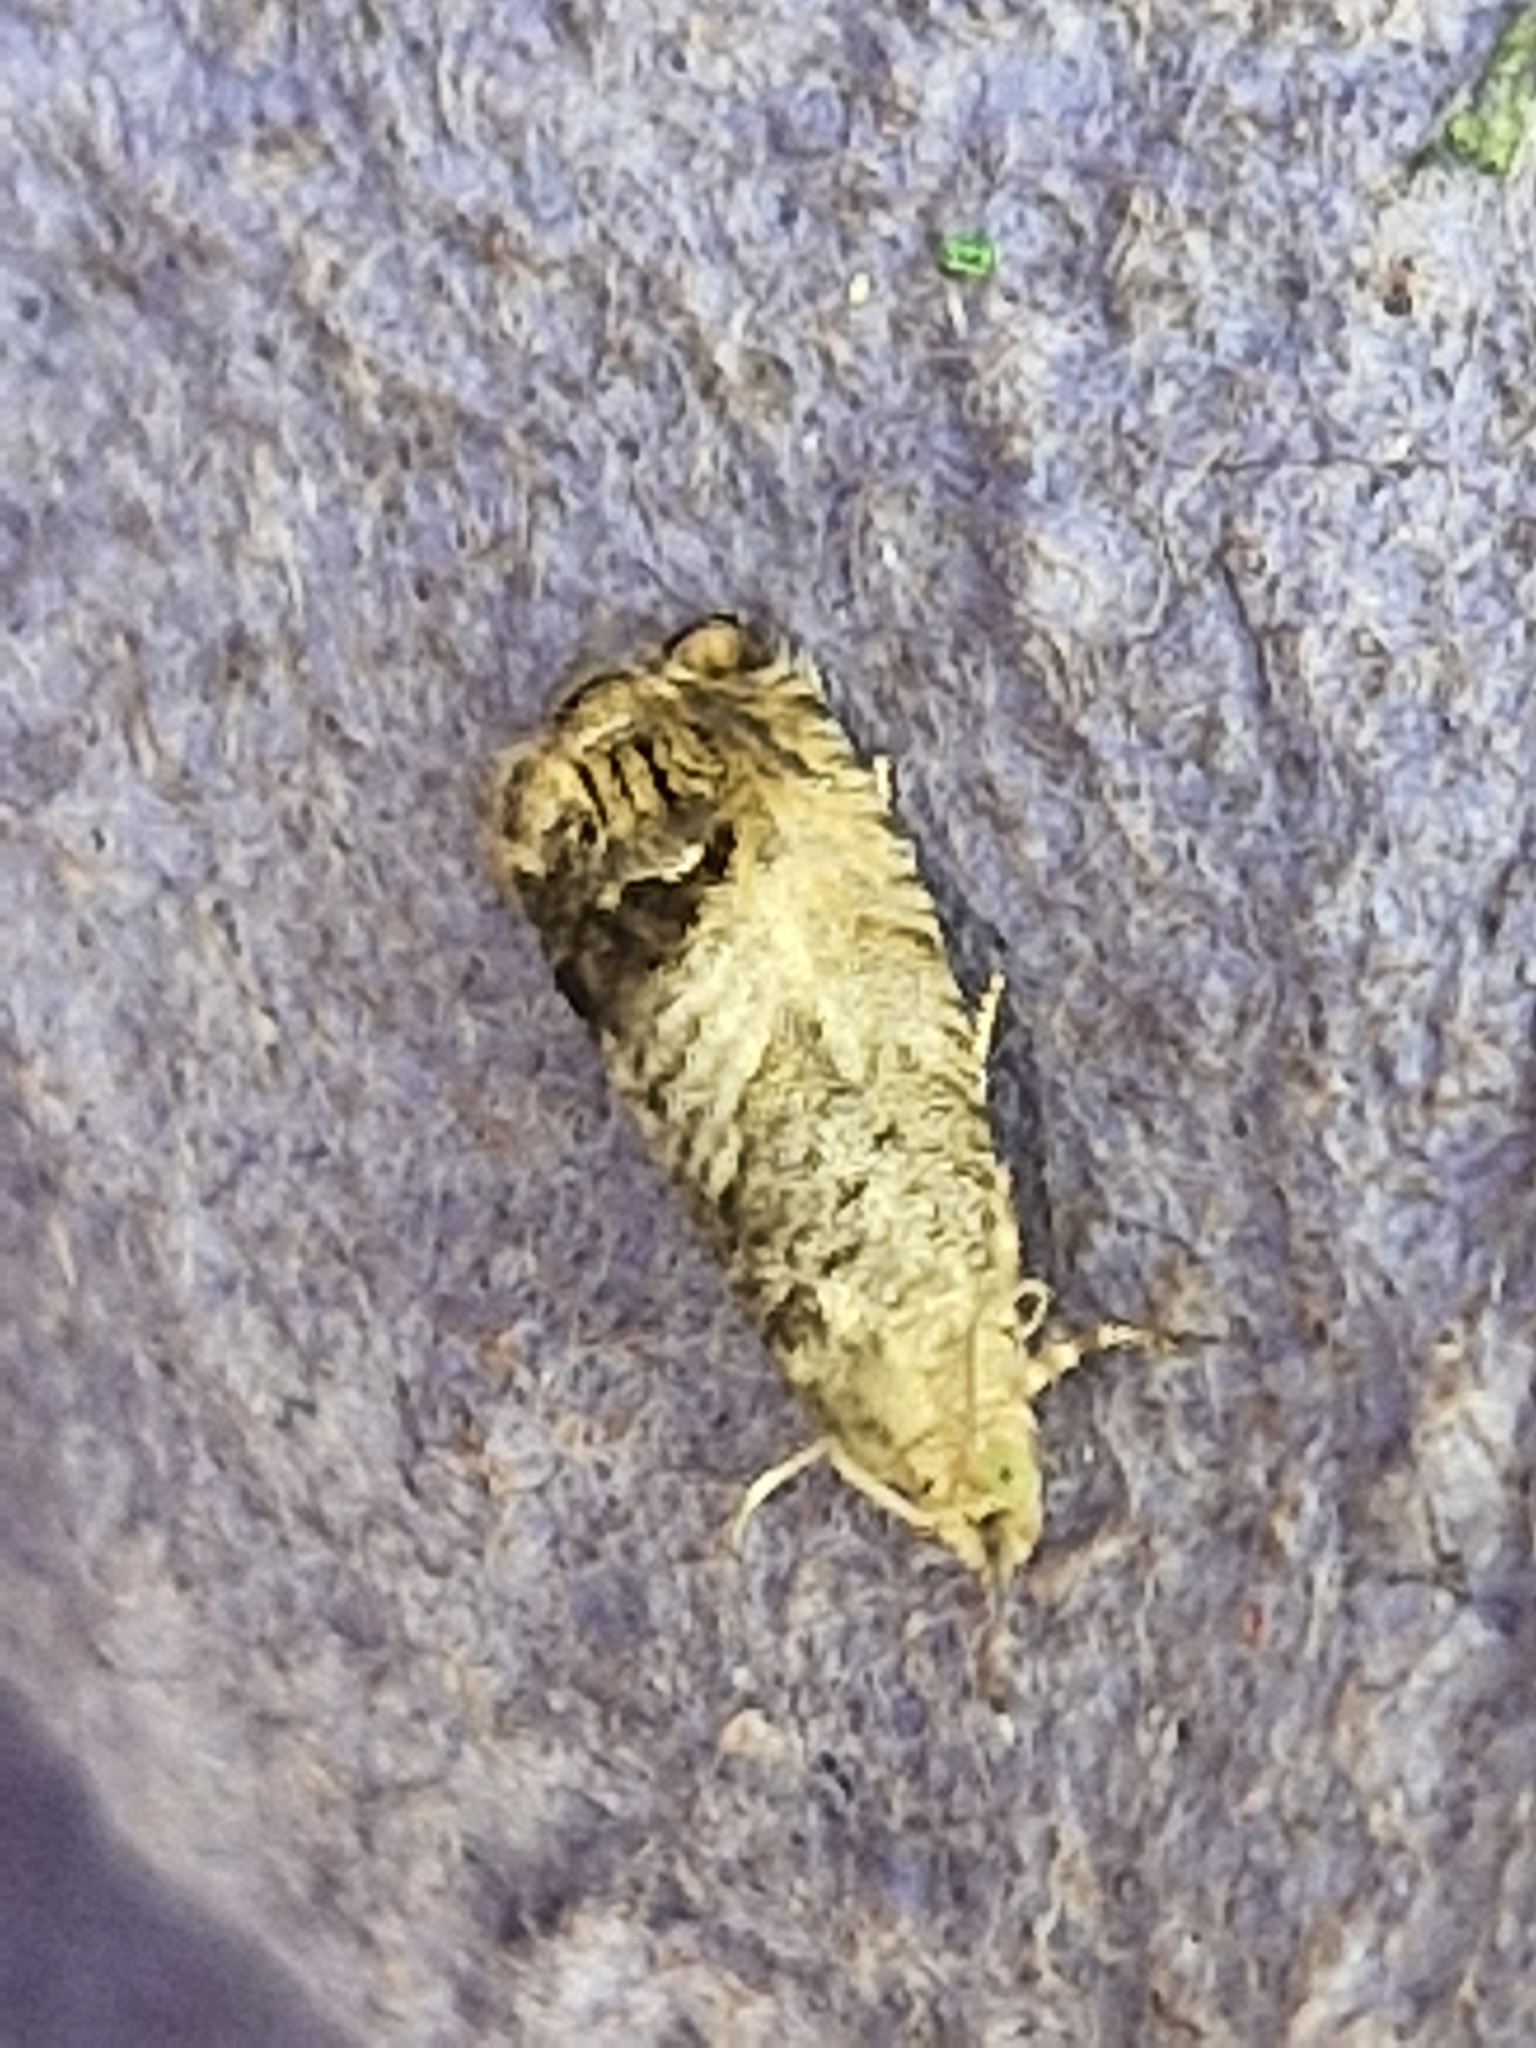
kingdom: Animalia
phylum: Arthropoda
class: Insecta
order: Lepidoptera
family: Tortricidae
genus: Cydia
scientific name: Cydia splendana
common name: De: kastanienwickler, eichenwickler es: oruga de la castaña fr: carpocapse des châtaignes it: cidia o tortrice tardiva delle castagne pt: bichado das castanhas gb: acorn moth, chestnut fruit tortrix
